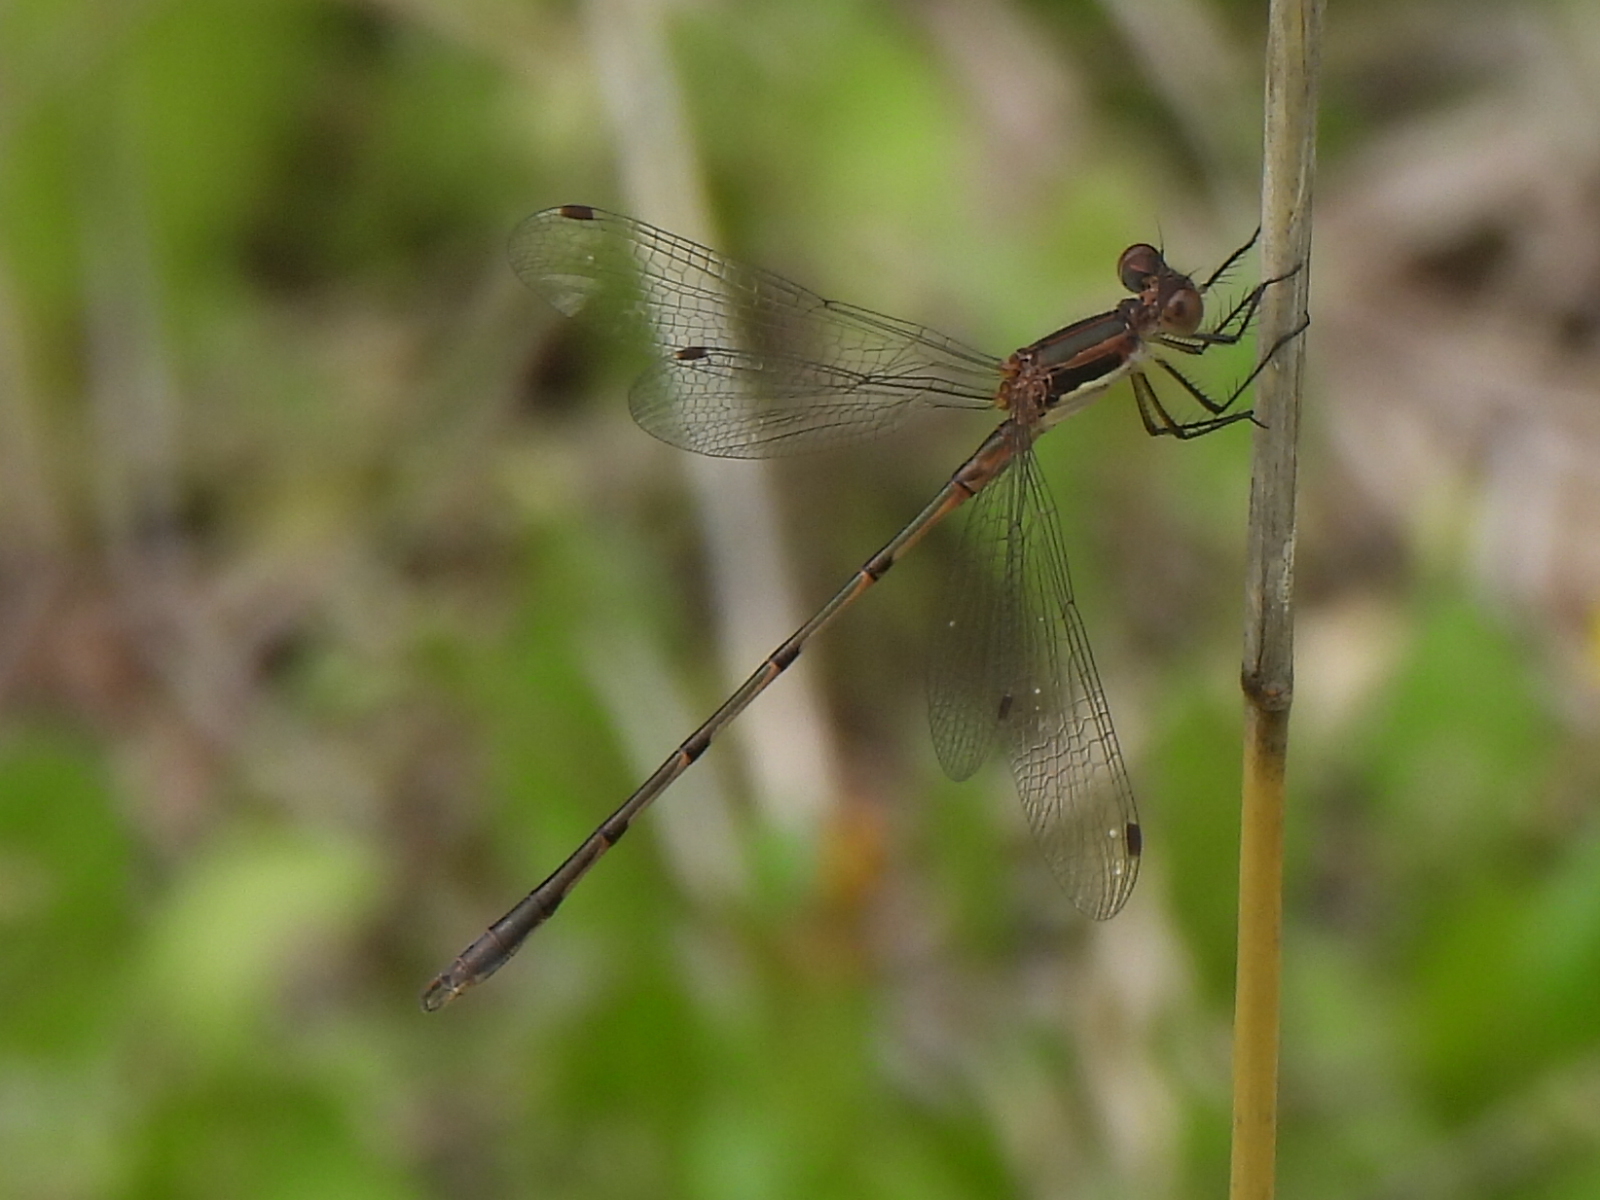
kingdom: Animalia
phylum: Arthropoda
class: Insecta
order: Odonata
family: Lestidae
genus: Lestes
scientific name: Lestes australis
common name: Southern spreadwing
